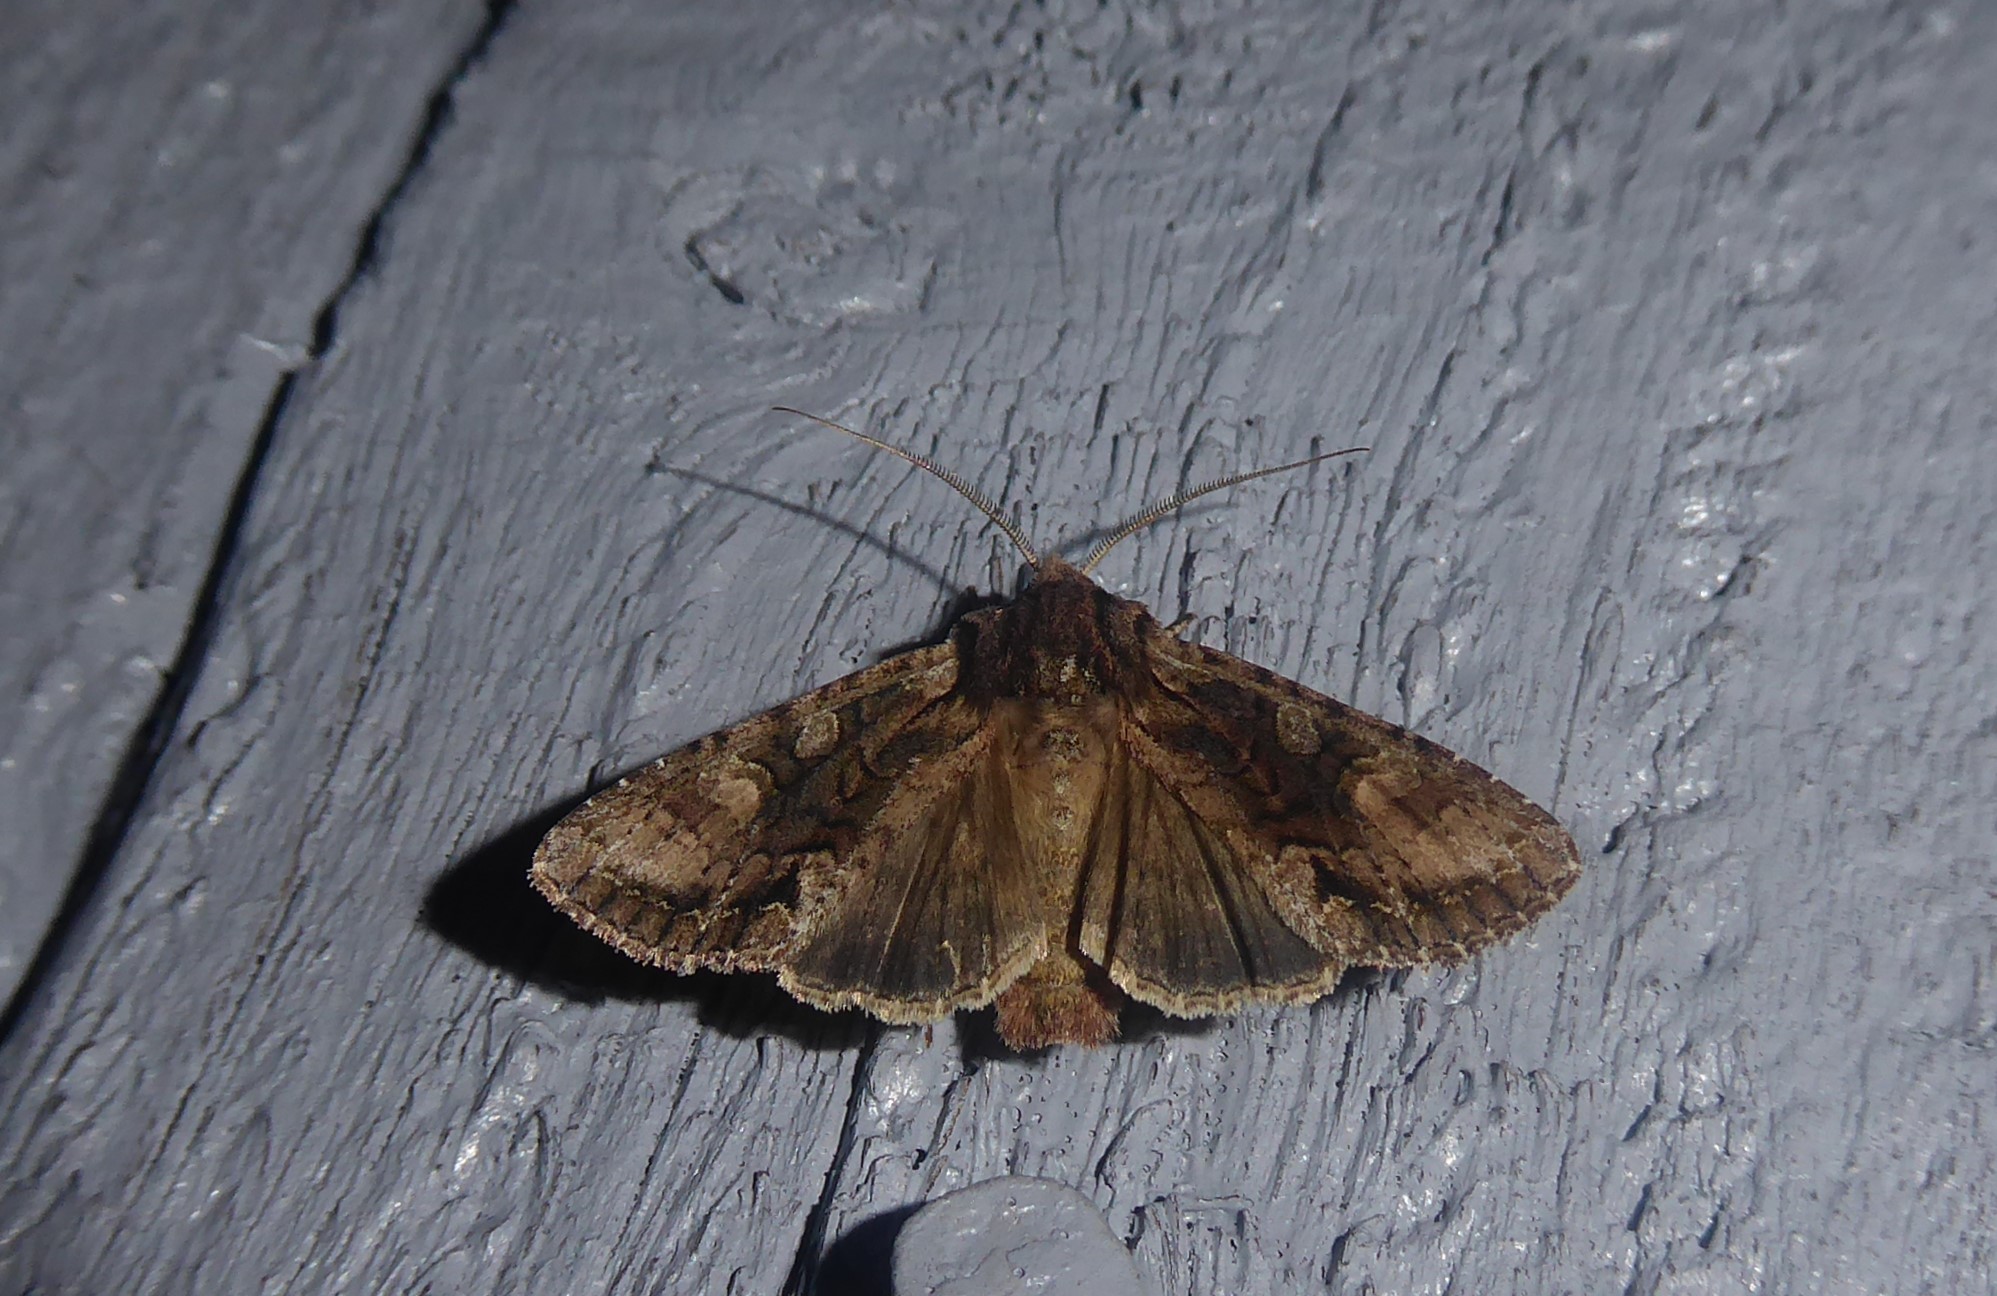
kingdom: Animalia
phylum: Arthropoda
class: Insecta
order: Lepidoptera
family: Noctuidae
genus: Ichneutica
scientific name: Ichneutica mutans
